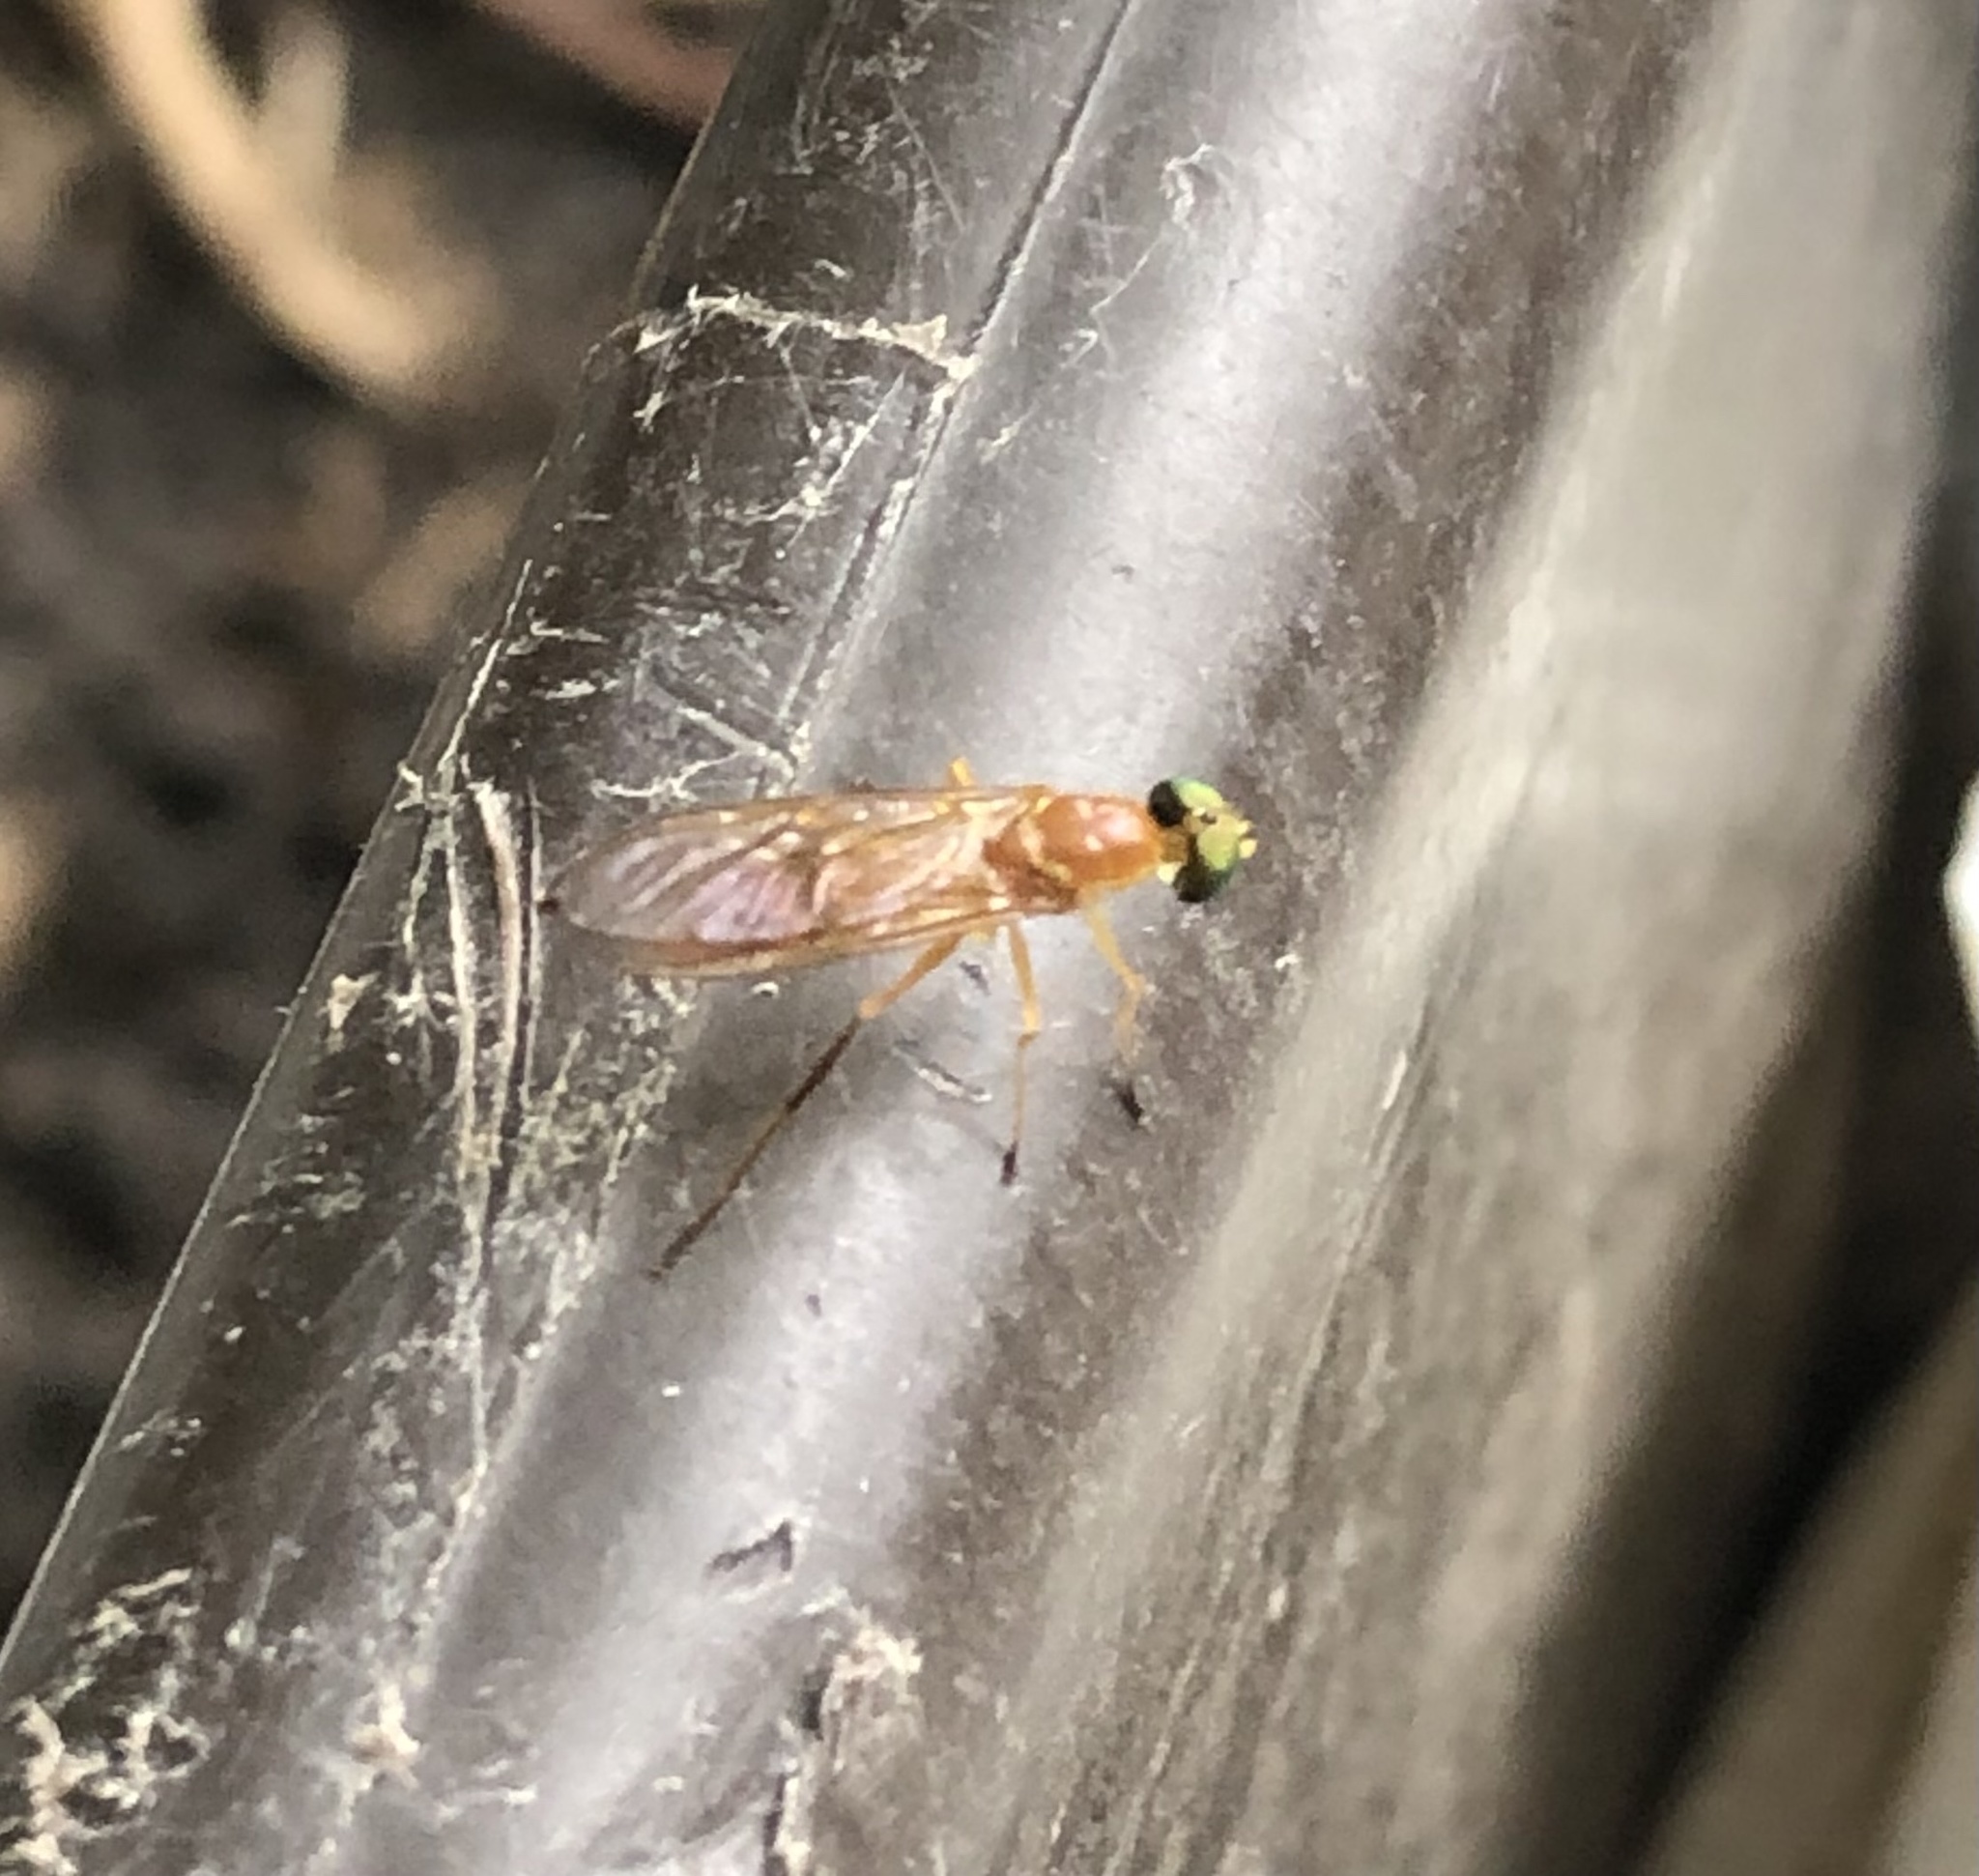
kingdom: Animalia
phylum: Arthropoda
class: Insecta
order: Diptera
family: Stratiomyidae
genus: Ptecticus
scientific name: Ptecticus trivittatus
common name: Compost fly
